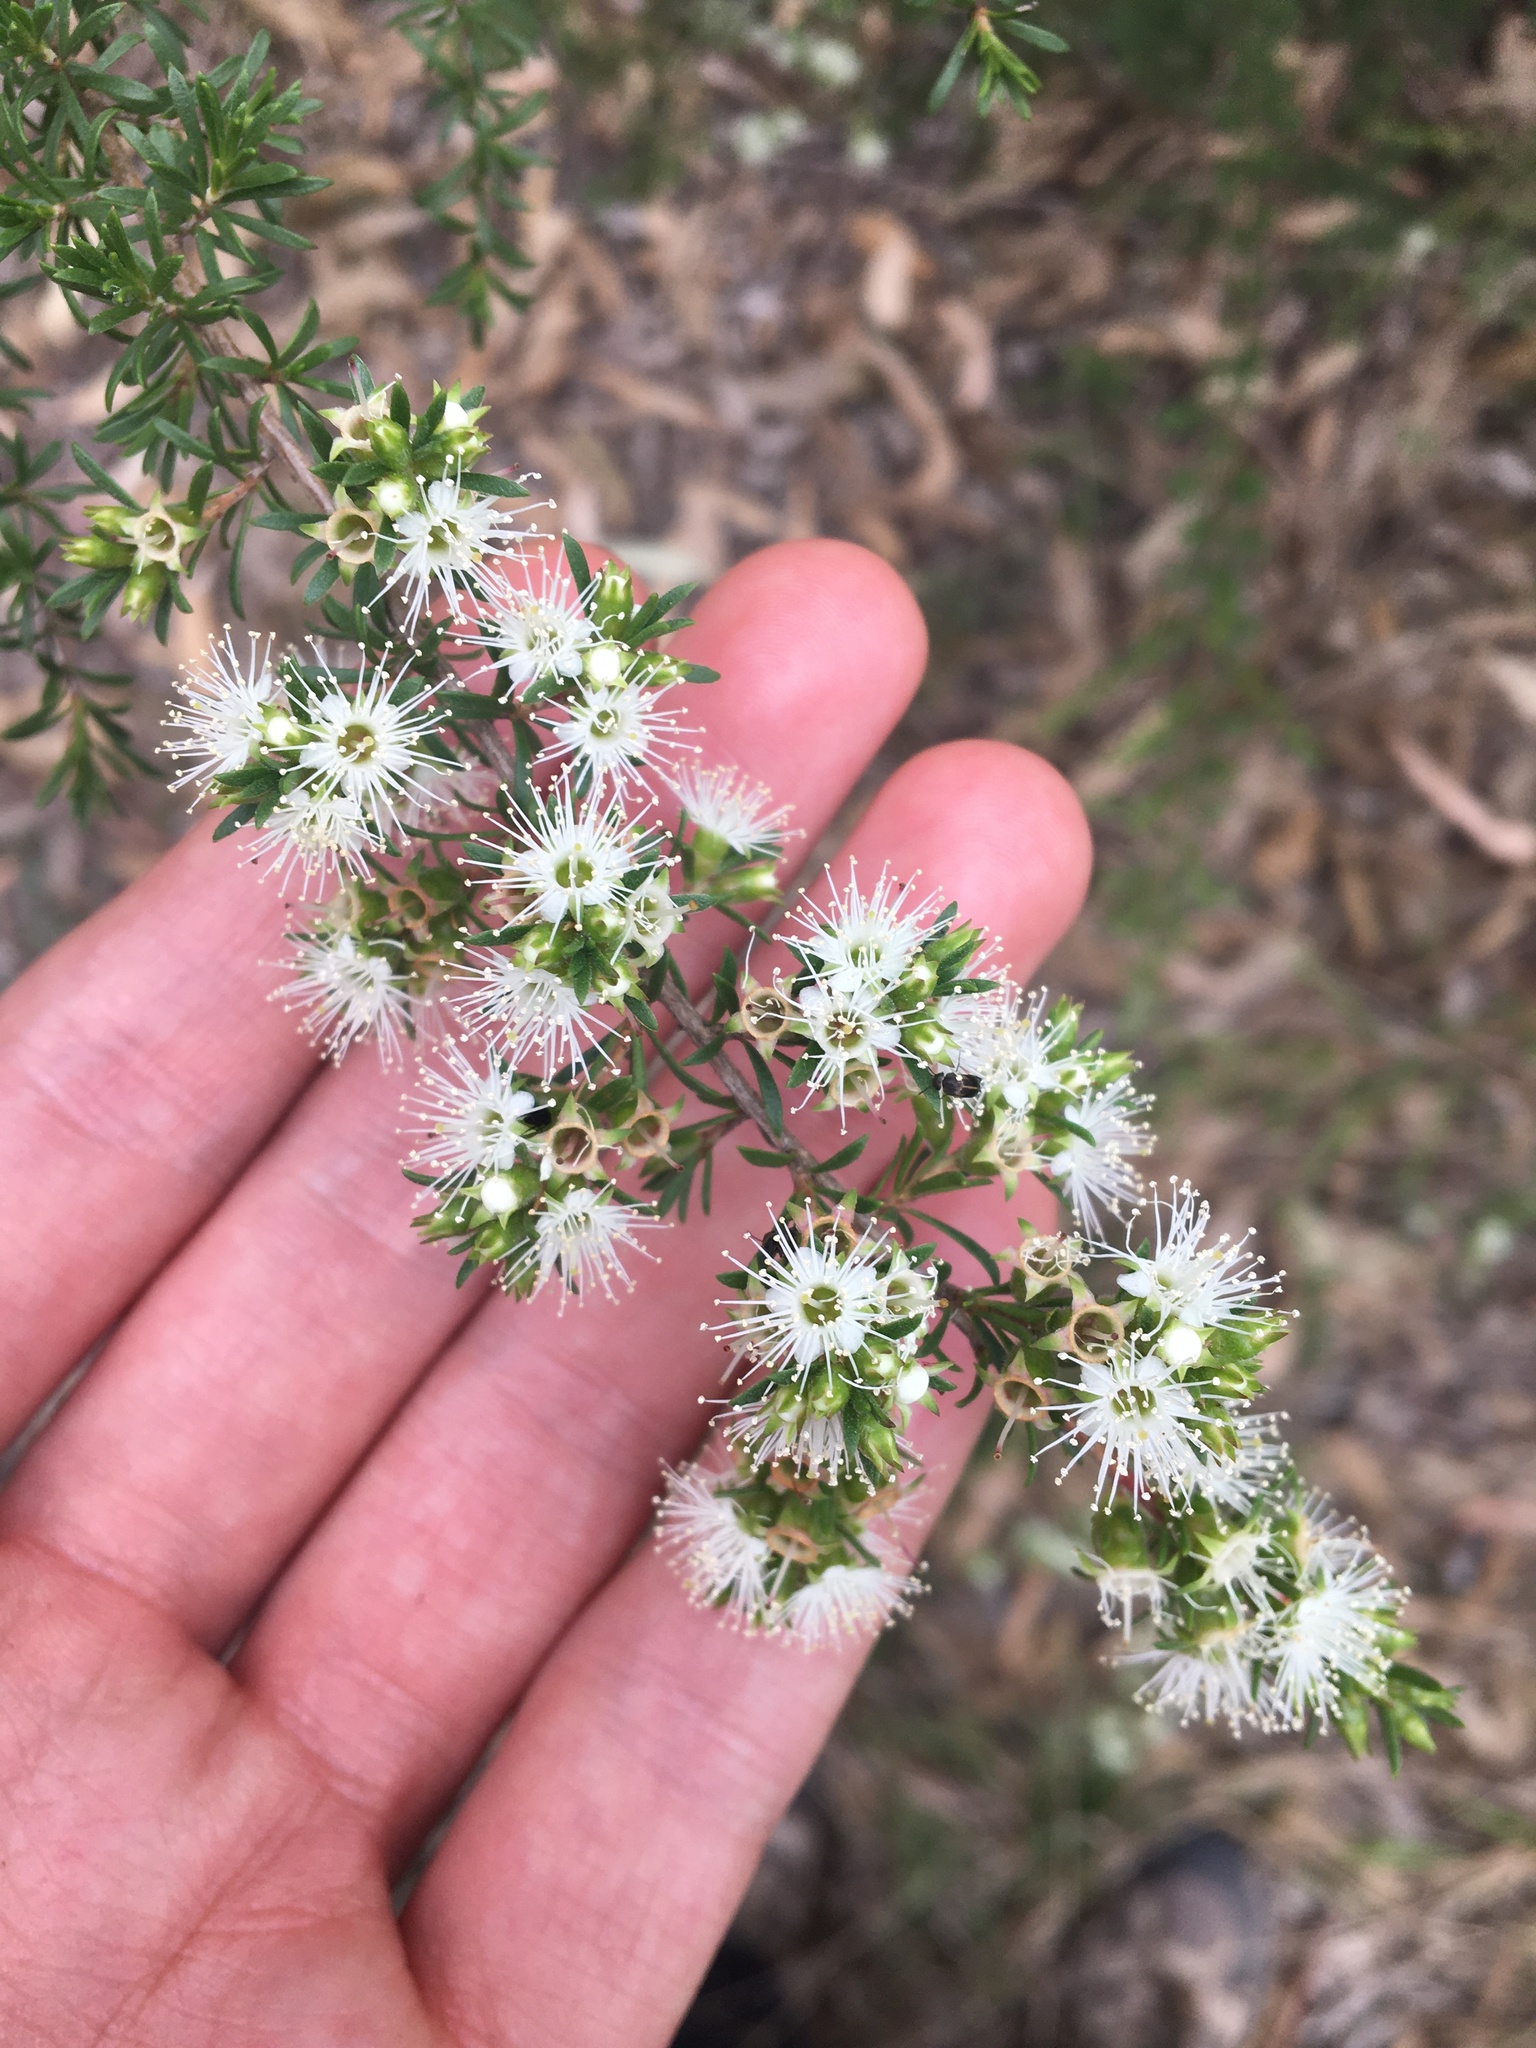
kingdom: Plantae
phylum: Tracheophyta
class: Magnoliopsida
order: Myrtales
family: Myrtaceae
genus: Kunzea
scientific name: Kunzea ambigua
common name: Tickbush
